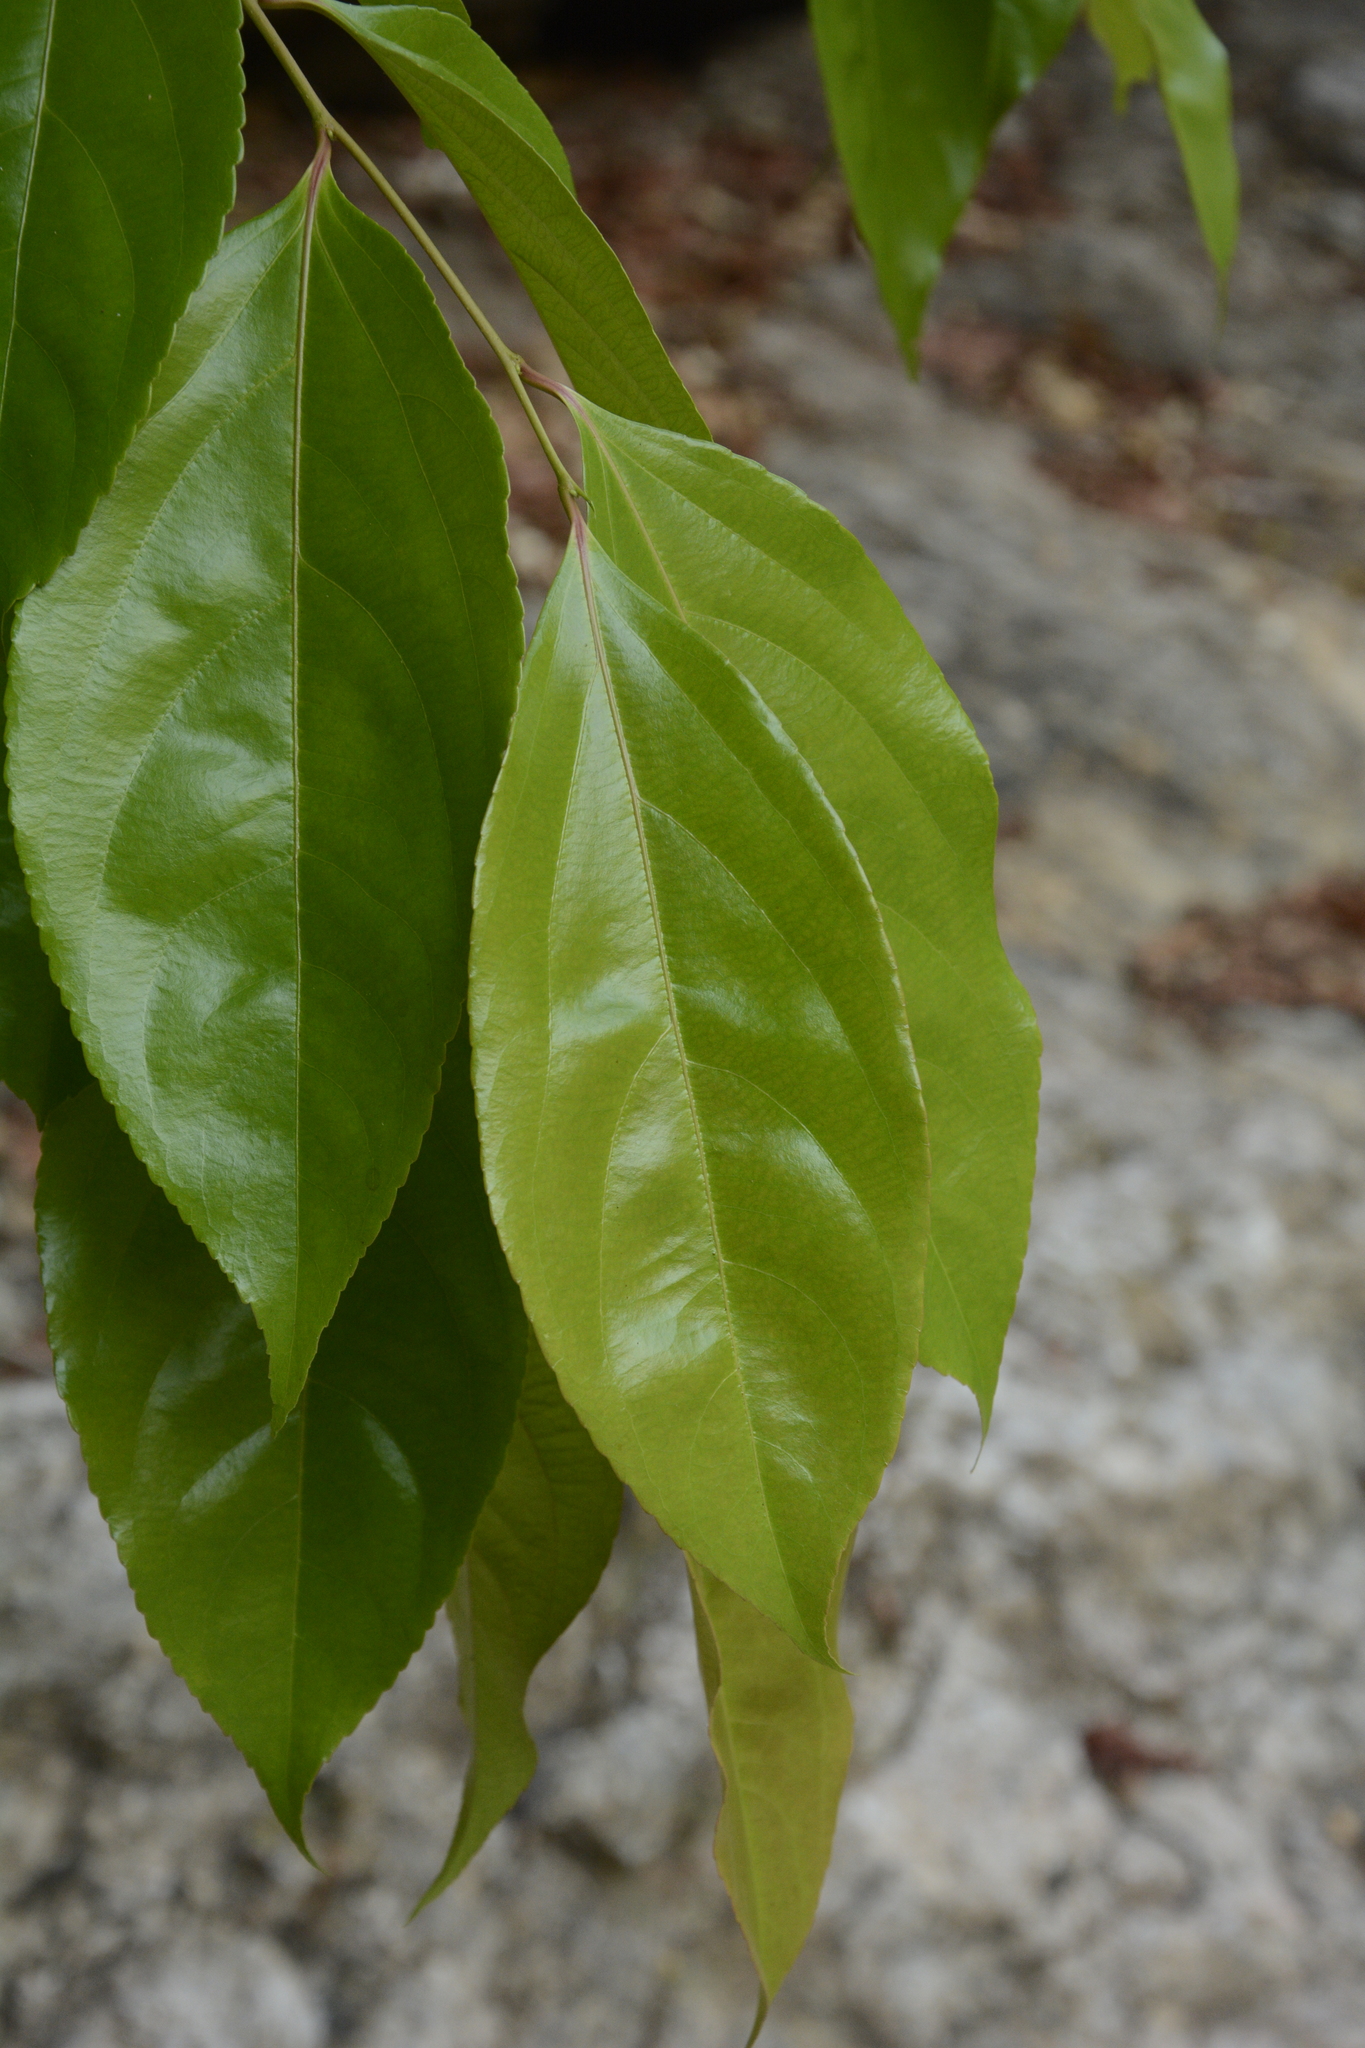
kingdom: Plantae
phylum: Tracheophyta
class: Magnoliopsida
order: Malpighiales
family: Salicaceae
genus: Flacourtia
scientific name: Flacourtia montana
